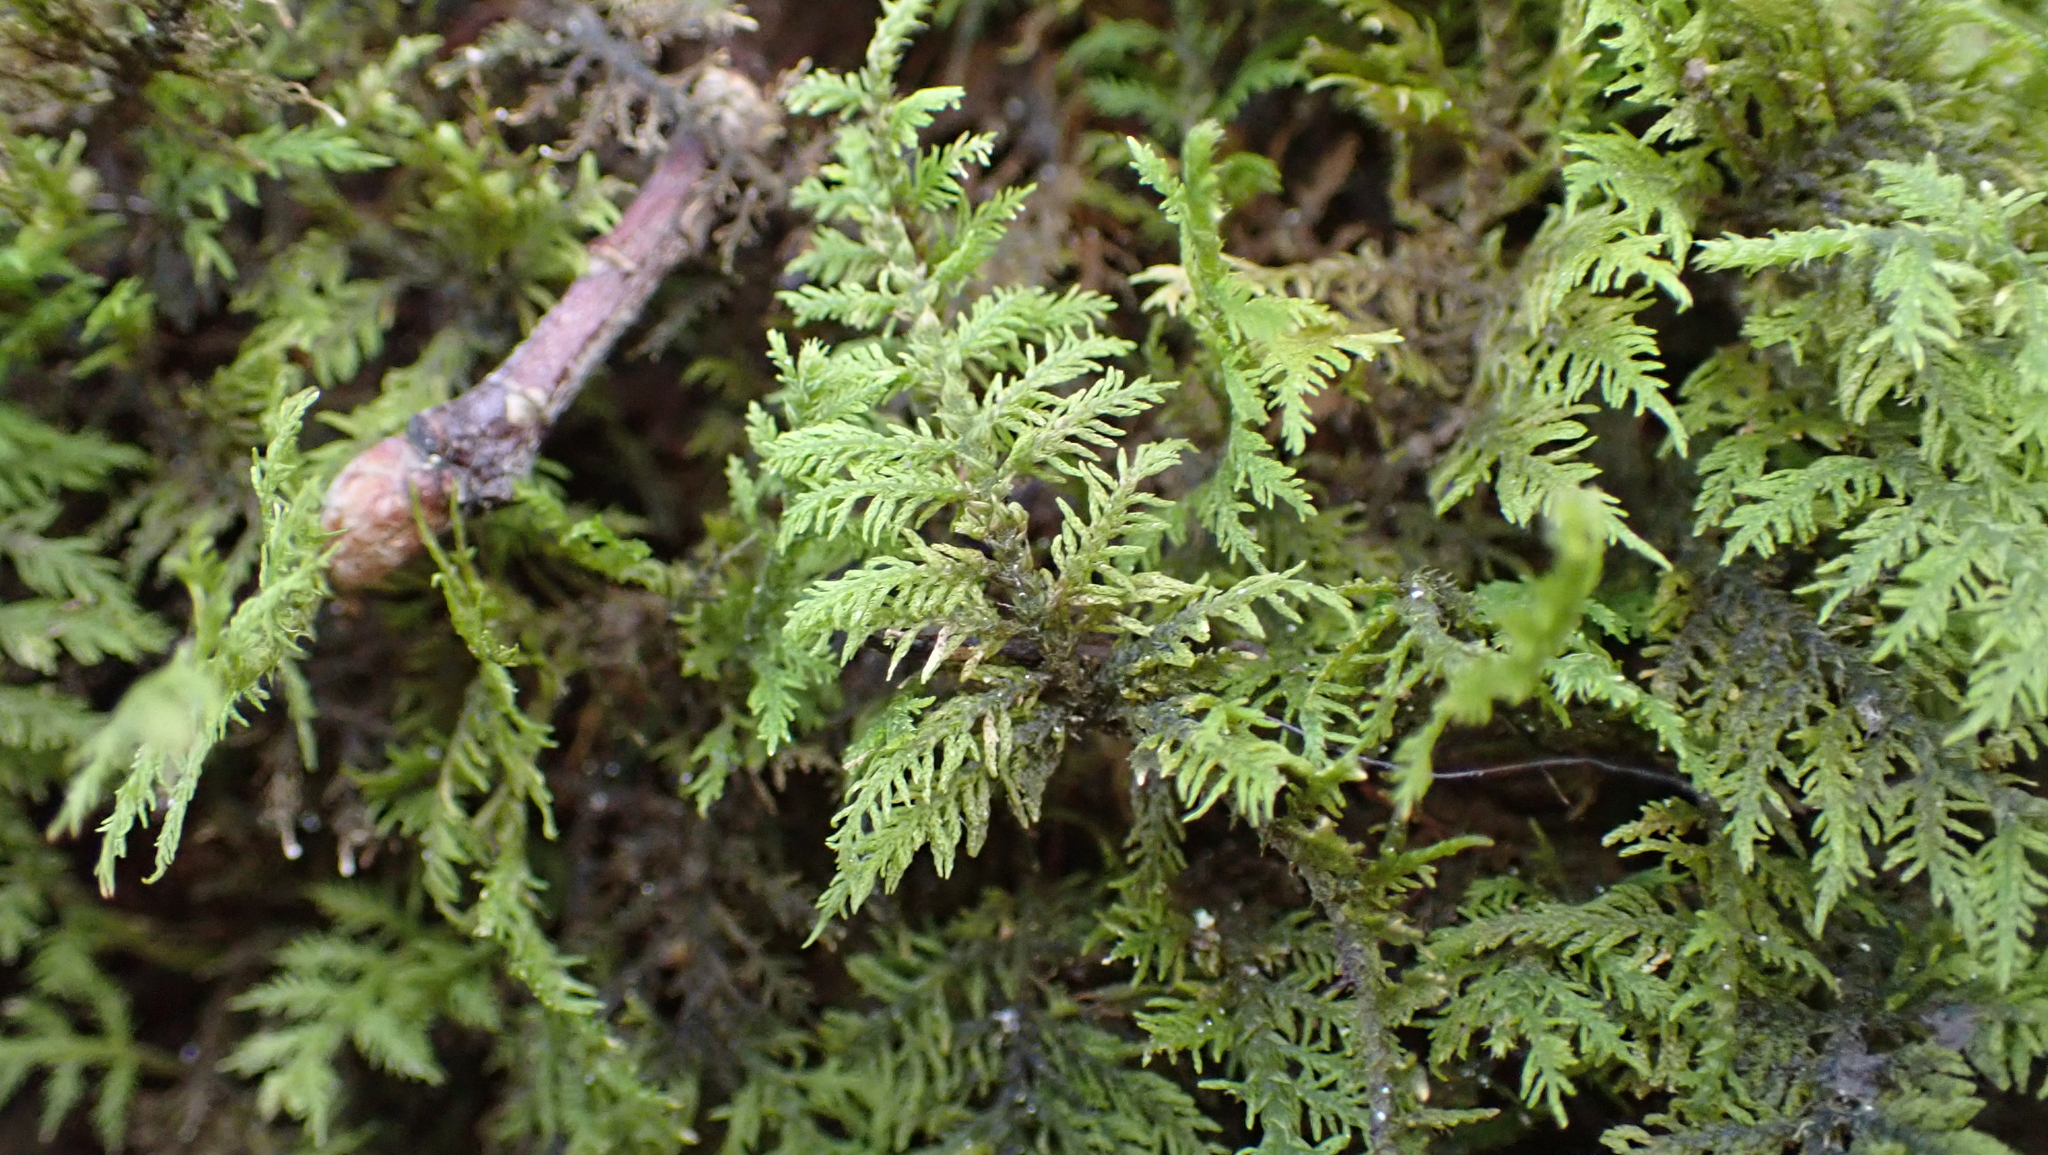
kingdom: Plantae
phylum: Bryophyta
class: Bryopsida
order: Hypnales
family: Thuidiaceae
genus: Thuidium
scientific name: Thuidium delicatulum
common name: Delicate fern moss
